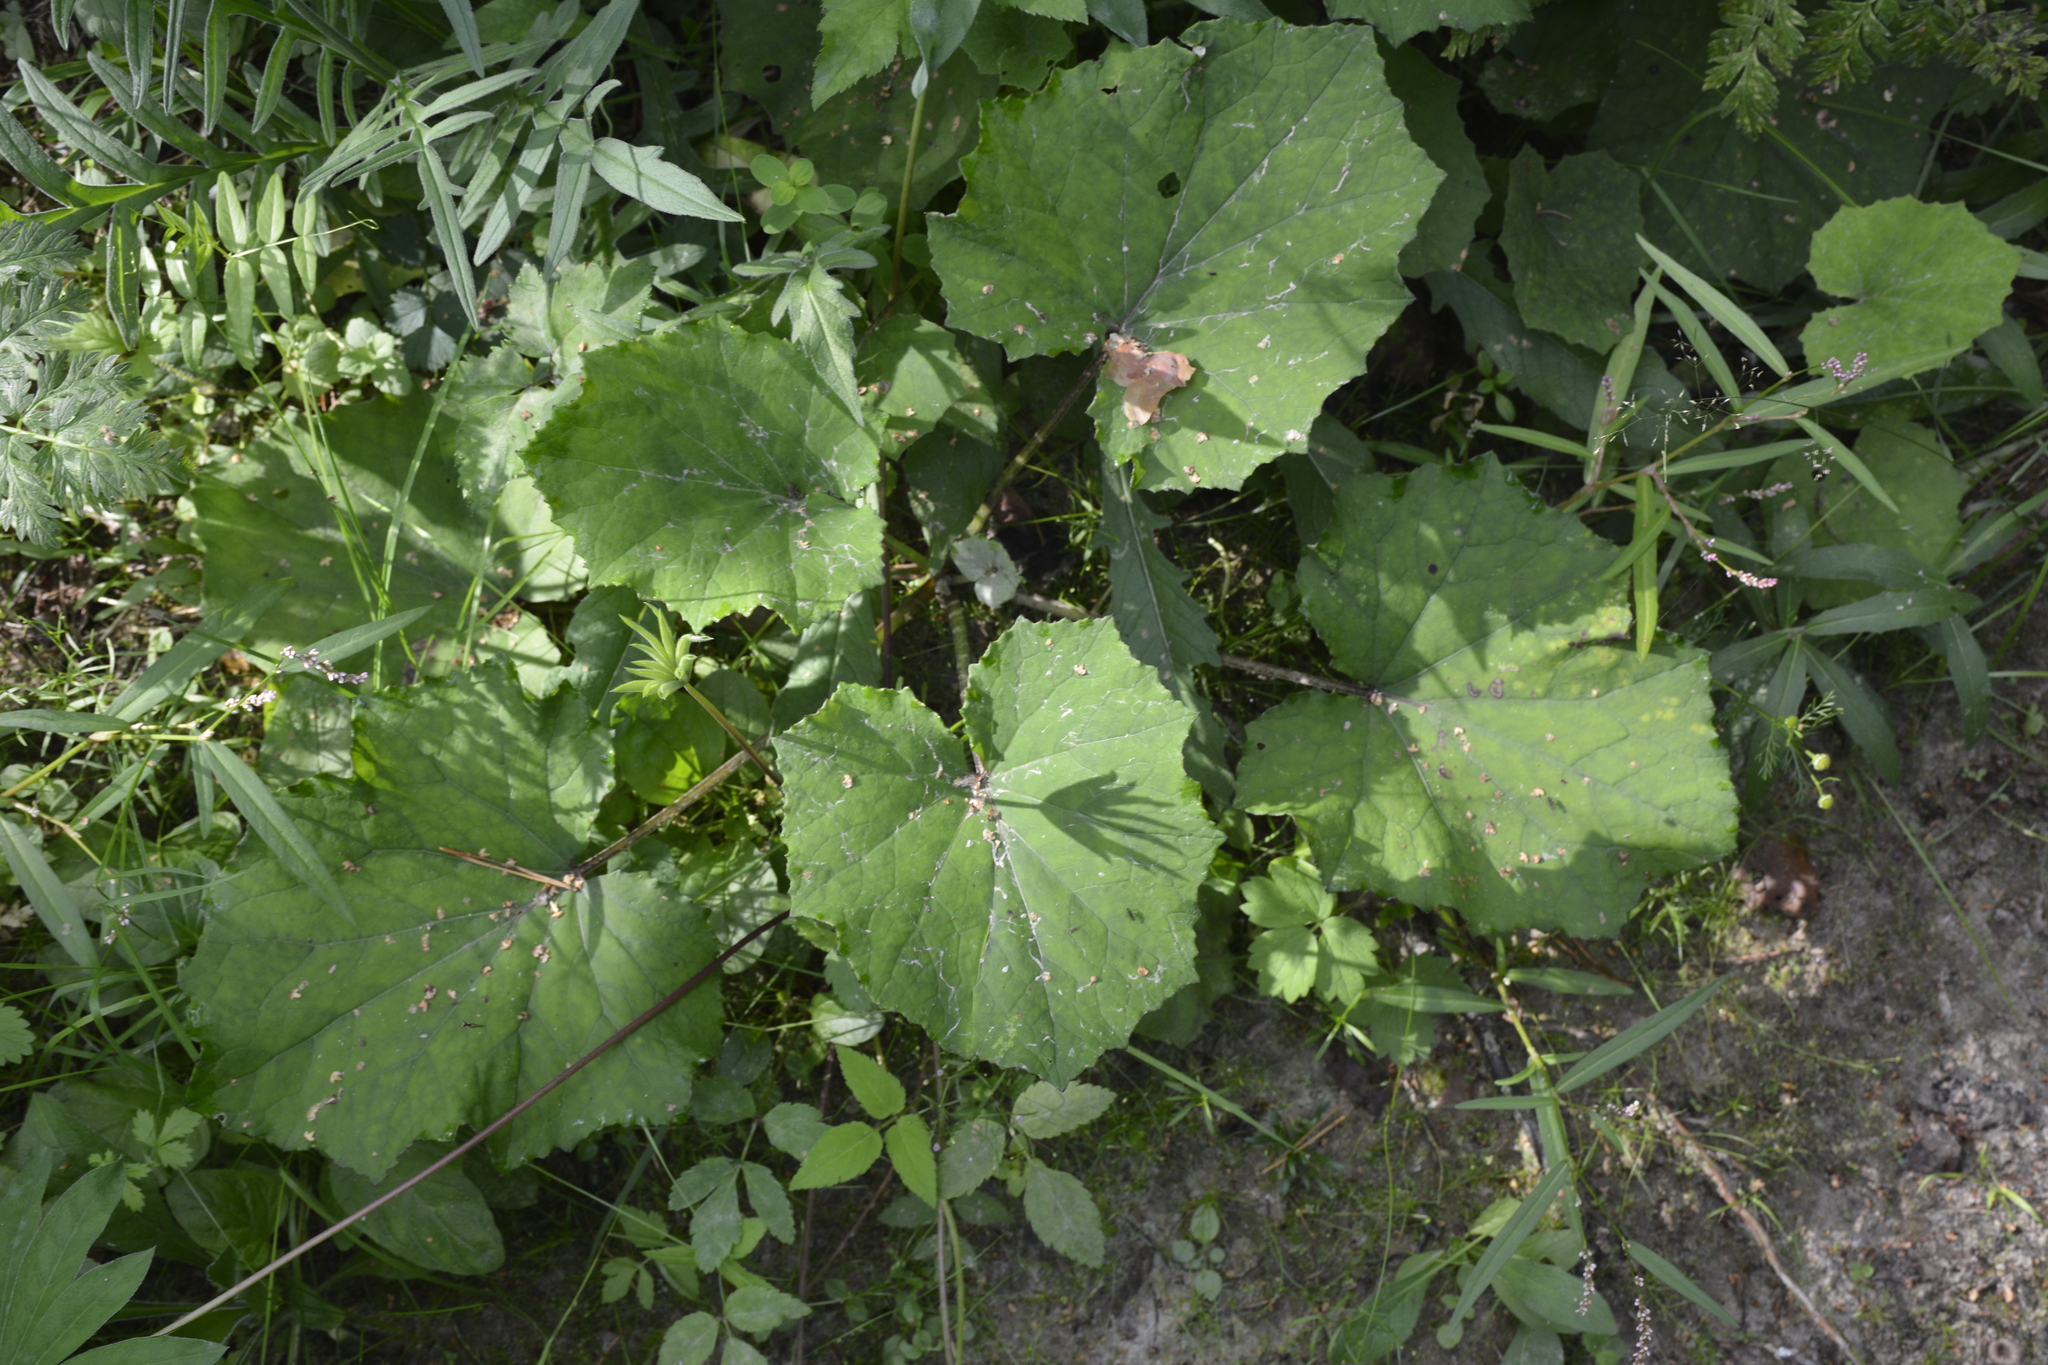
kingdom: Plantae
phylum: Tracheophyta
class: Magnoliopsida
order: Asterales
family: Asteraceae
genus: Tussilago
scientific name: Tussilago farfara
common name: Coltsfoot
